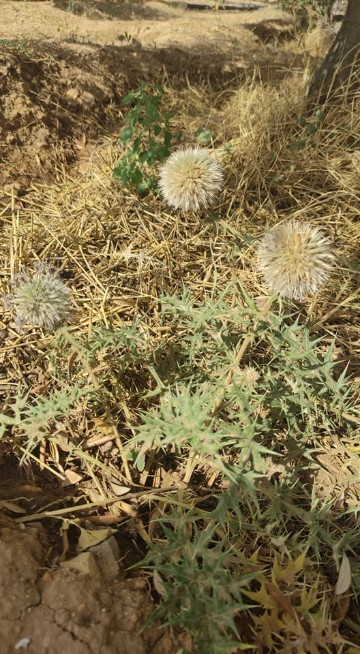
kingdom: Plantae
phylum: Tracheophyta
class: Magnoliopsida
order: Asterales
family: Asteraceae
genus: Echinops
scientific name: Echinops
